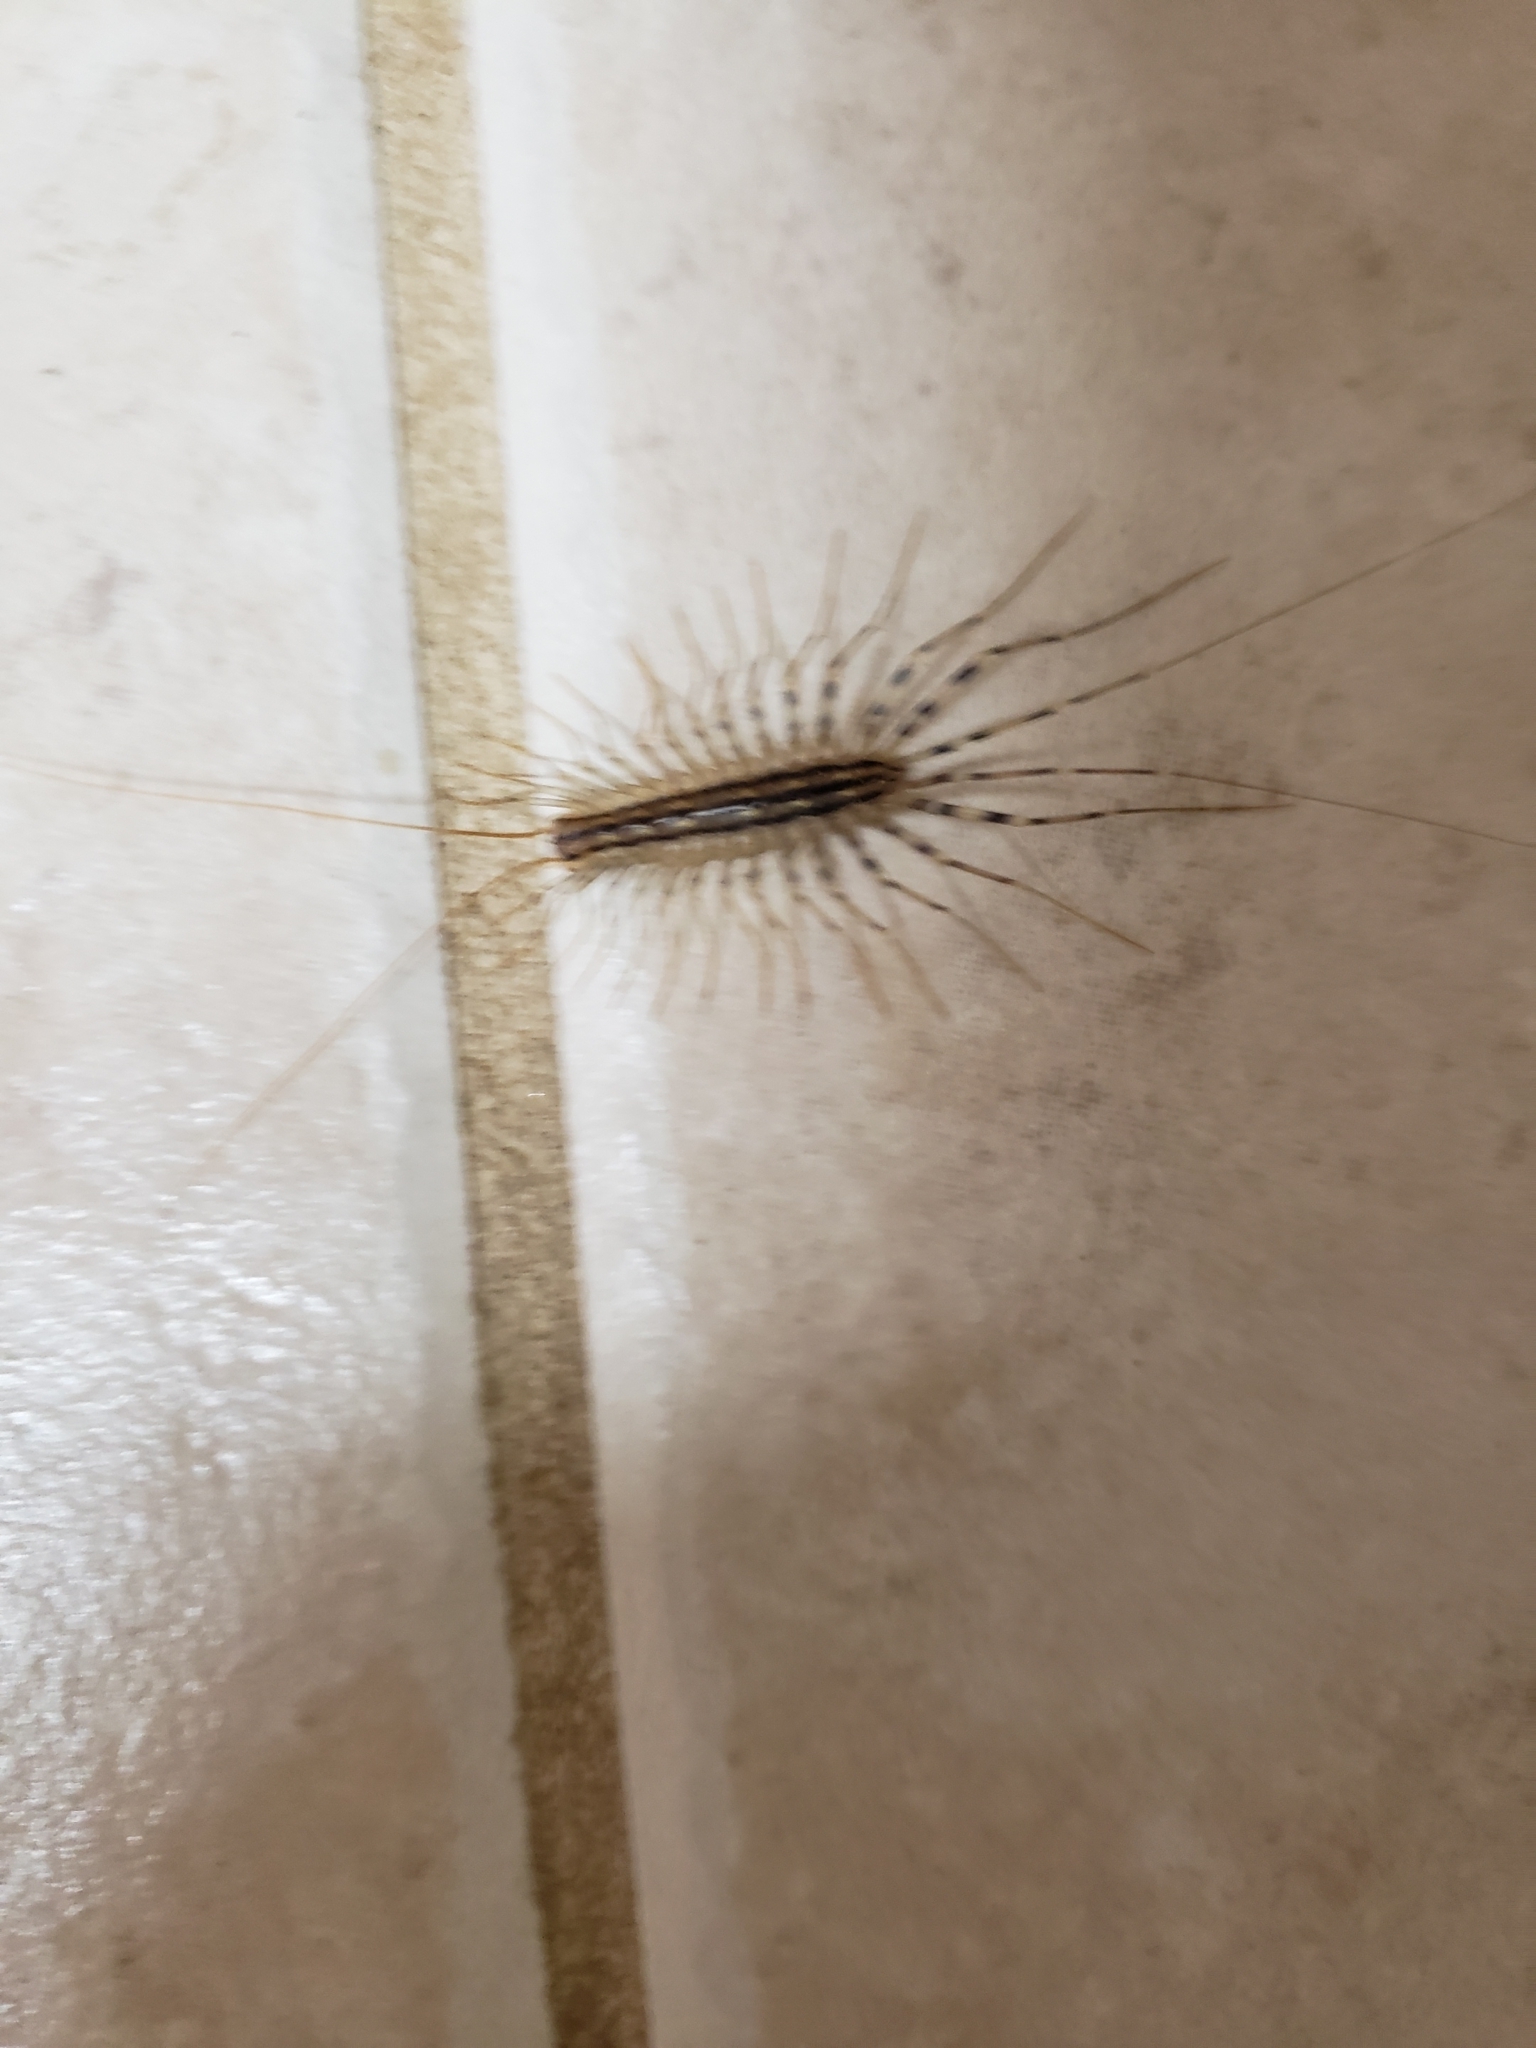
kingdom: Animalia
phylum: Arthropoda
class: Chilopoda
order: Scutigeromorpha
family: Scutigeridae
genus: Scutigera
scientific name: Scutigera coleoptrata
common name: House centipede
